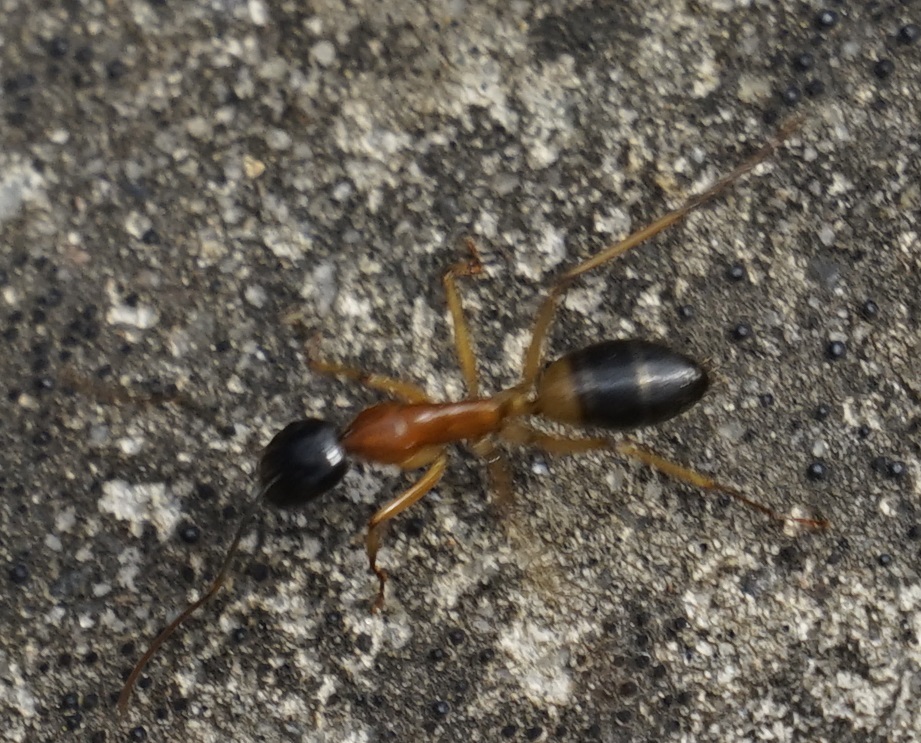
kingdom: Animalia
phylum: Arthropoda
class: Insecta
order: Hymenoptera
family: Formicidae
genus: Camponotus
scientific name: Camponotus consobrinus
